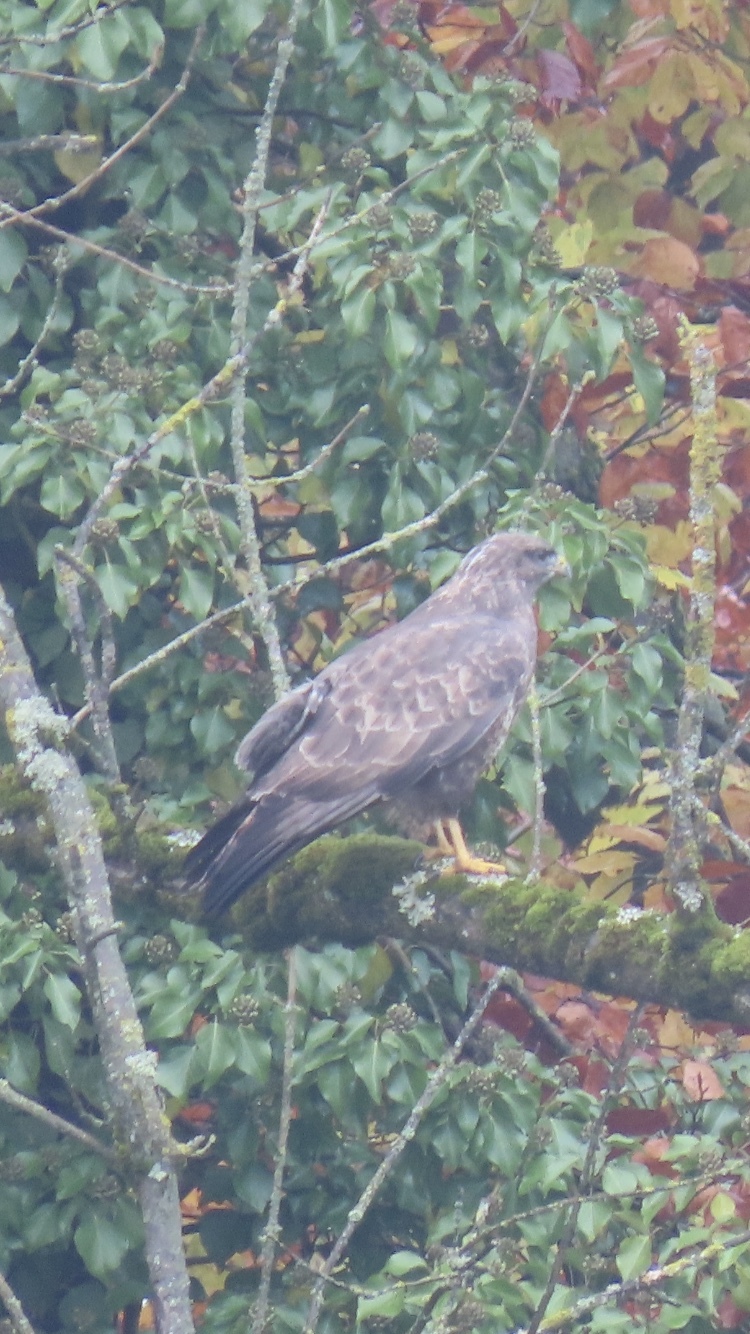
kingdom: Animalia
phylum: Chordata
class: Aves
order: Accipitriformes
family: Accipitridae
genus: Buteo
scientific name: Buteo buteo
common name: Common buzzard
